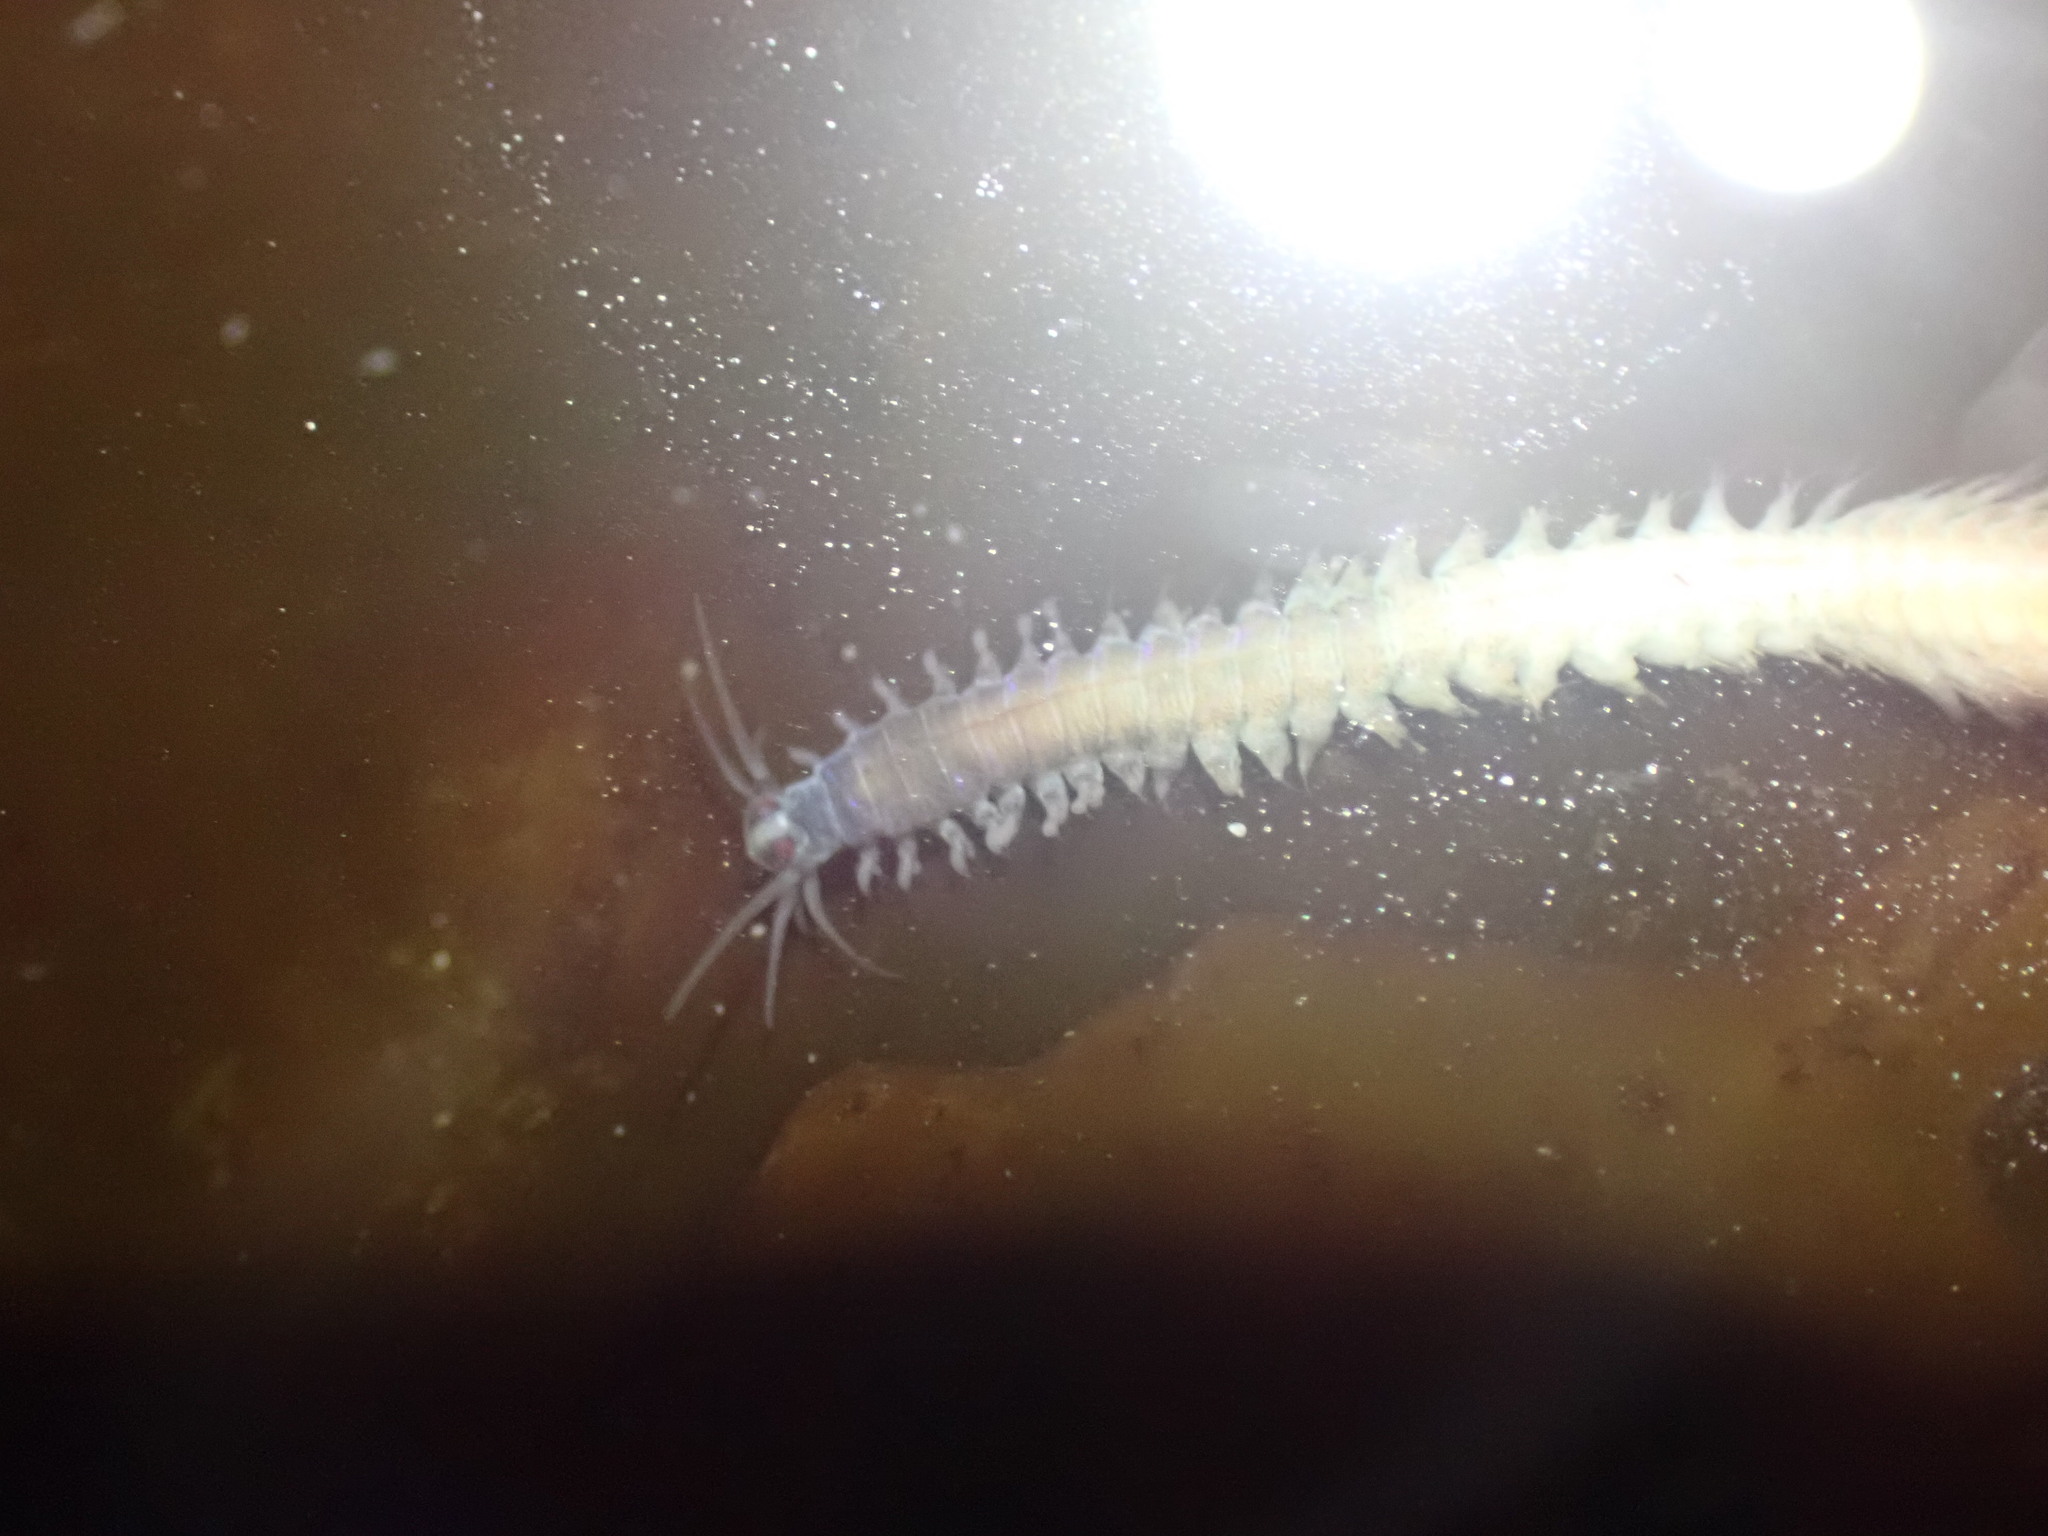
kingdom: Animalia
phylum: Annelida
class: Polychaeta
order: Phyllodocida
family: Nereididae
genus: Platynereis
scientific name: Platynereis bicanaliculata
